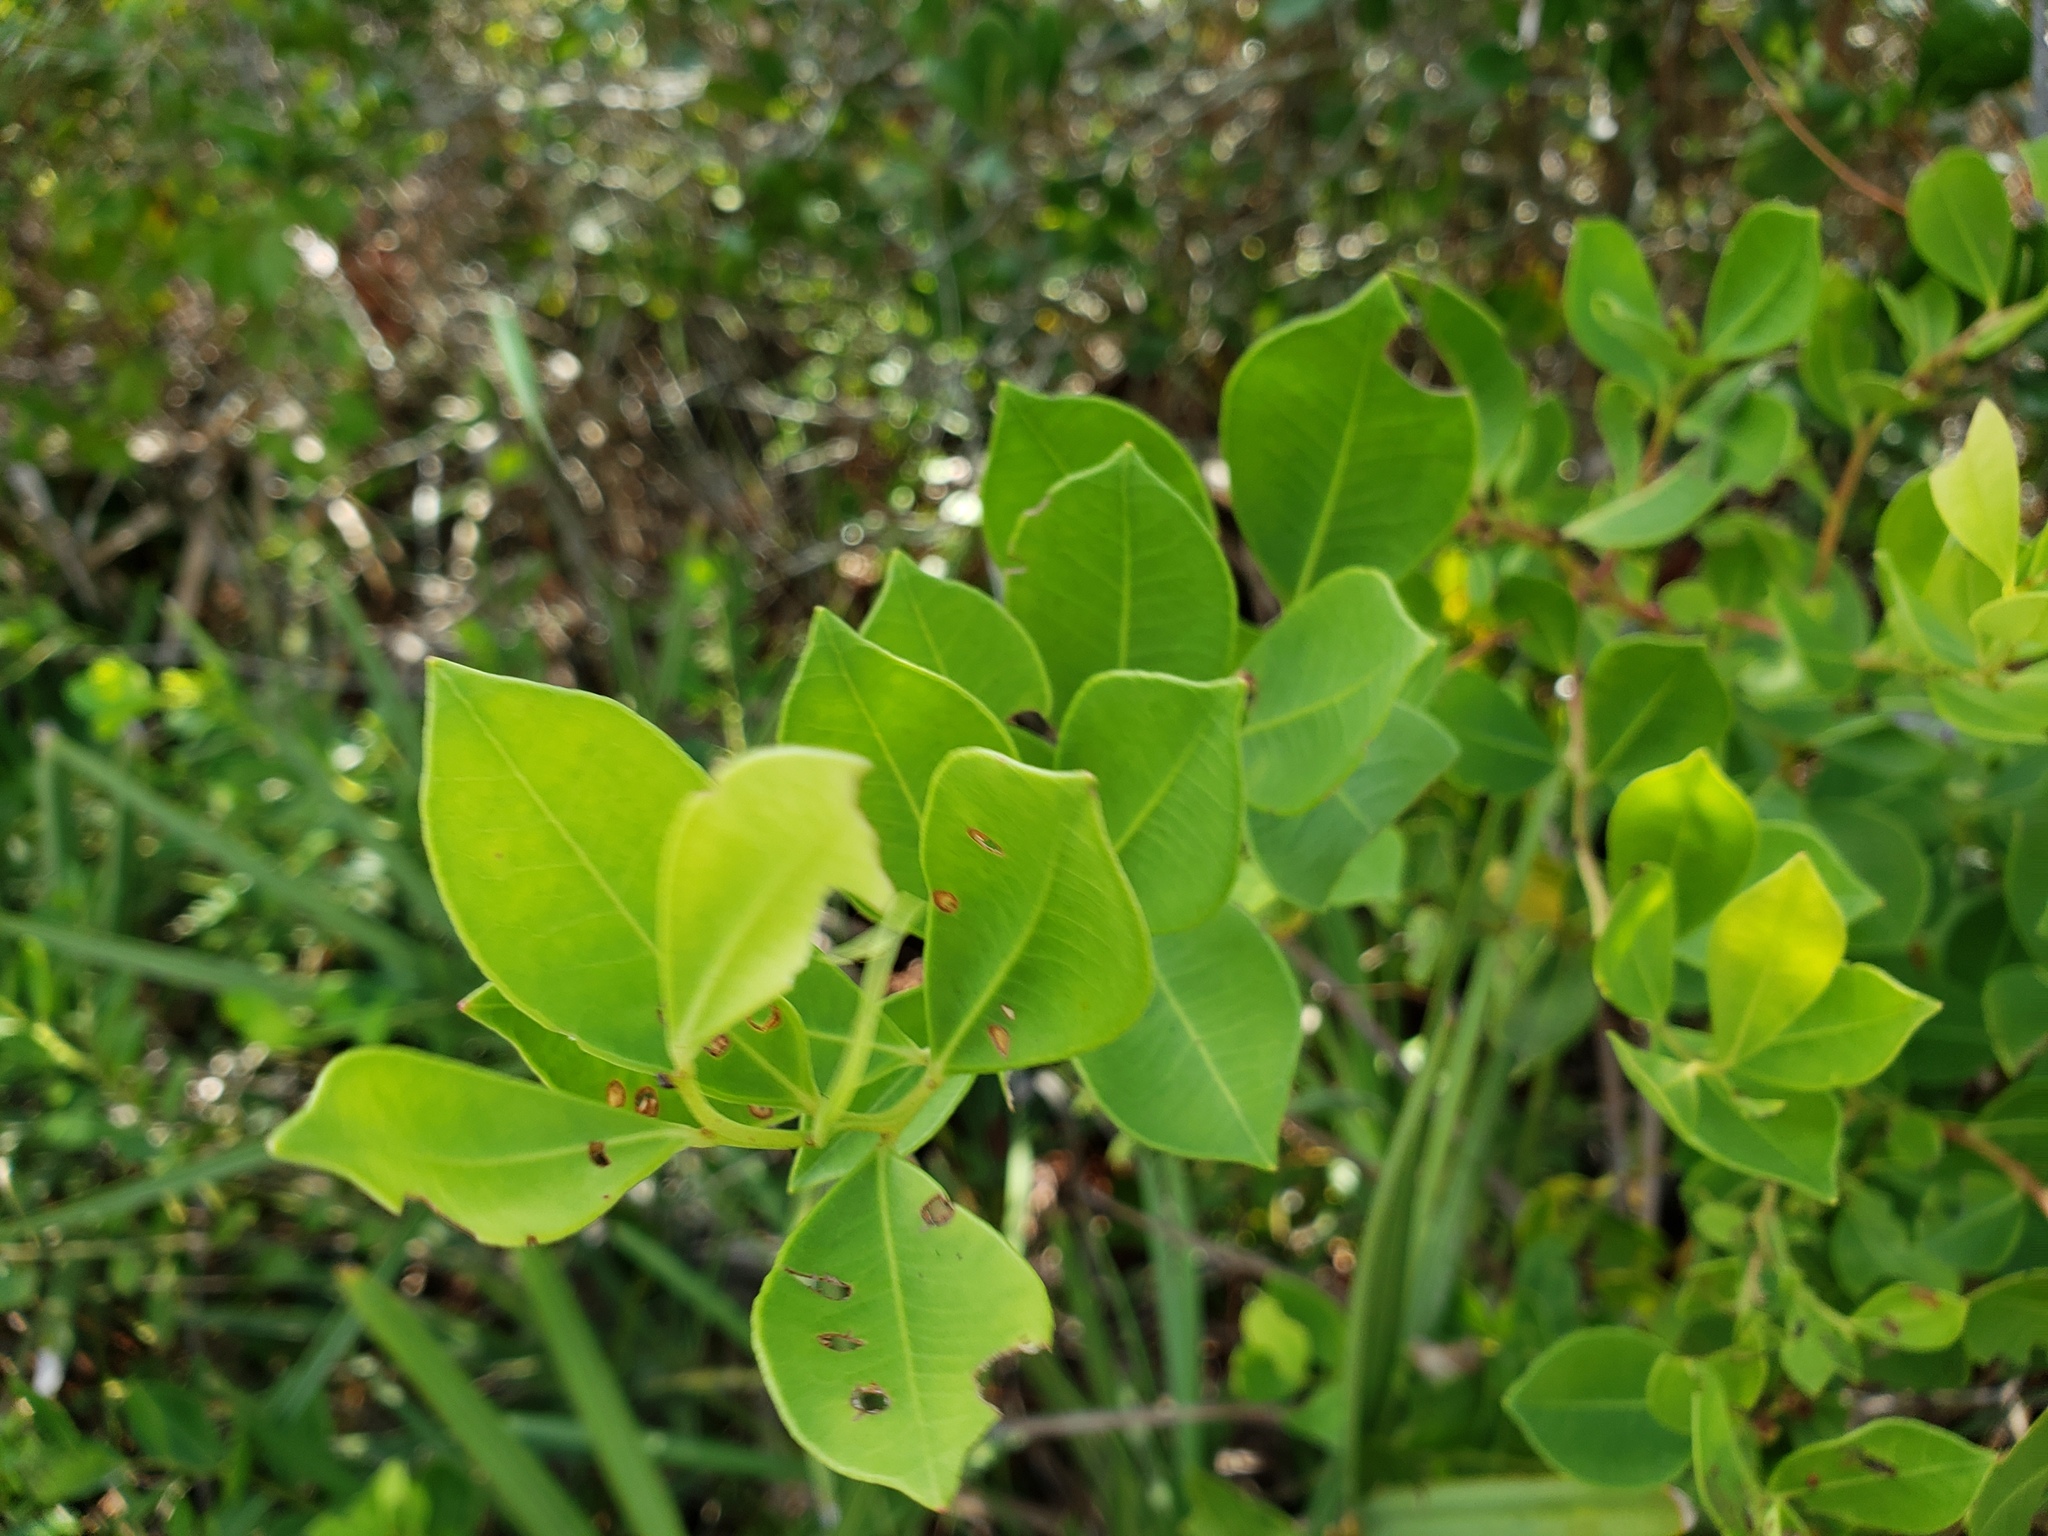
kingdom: Plantae
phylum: Tracheophyta
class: Magnoliopsida
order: Ericales
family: Ericaceae
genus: Lyonia
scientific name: Lyonia lucida
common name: Fetterbush
